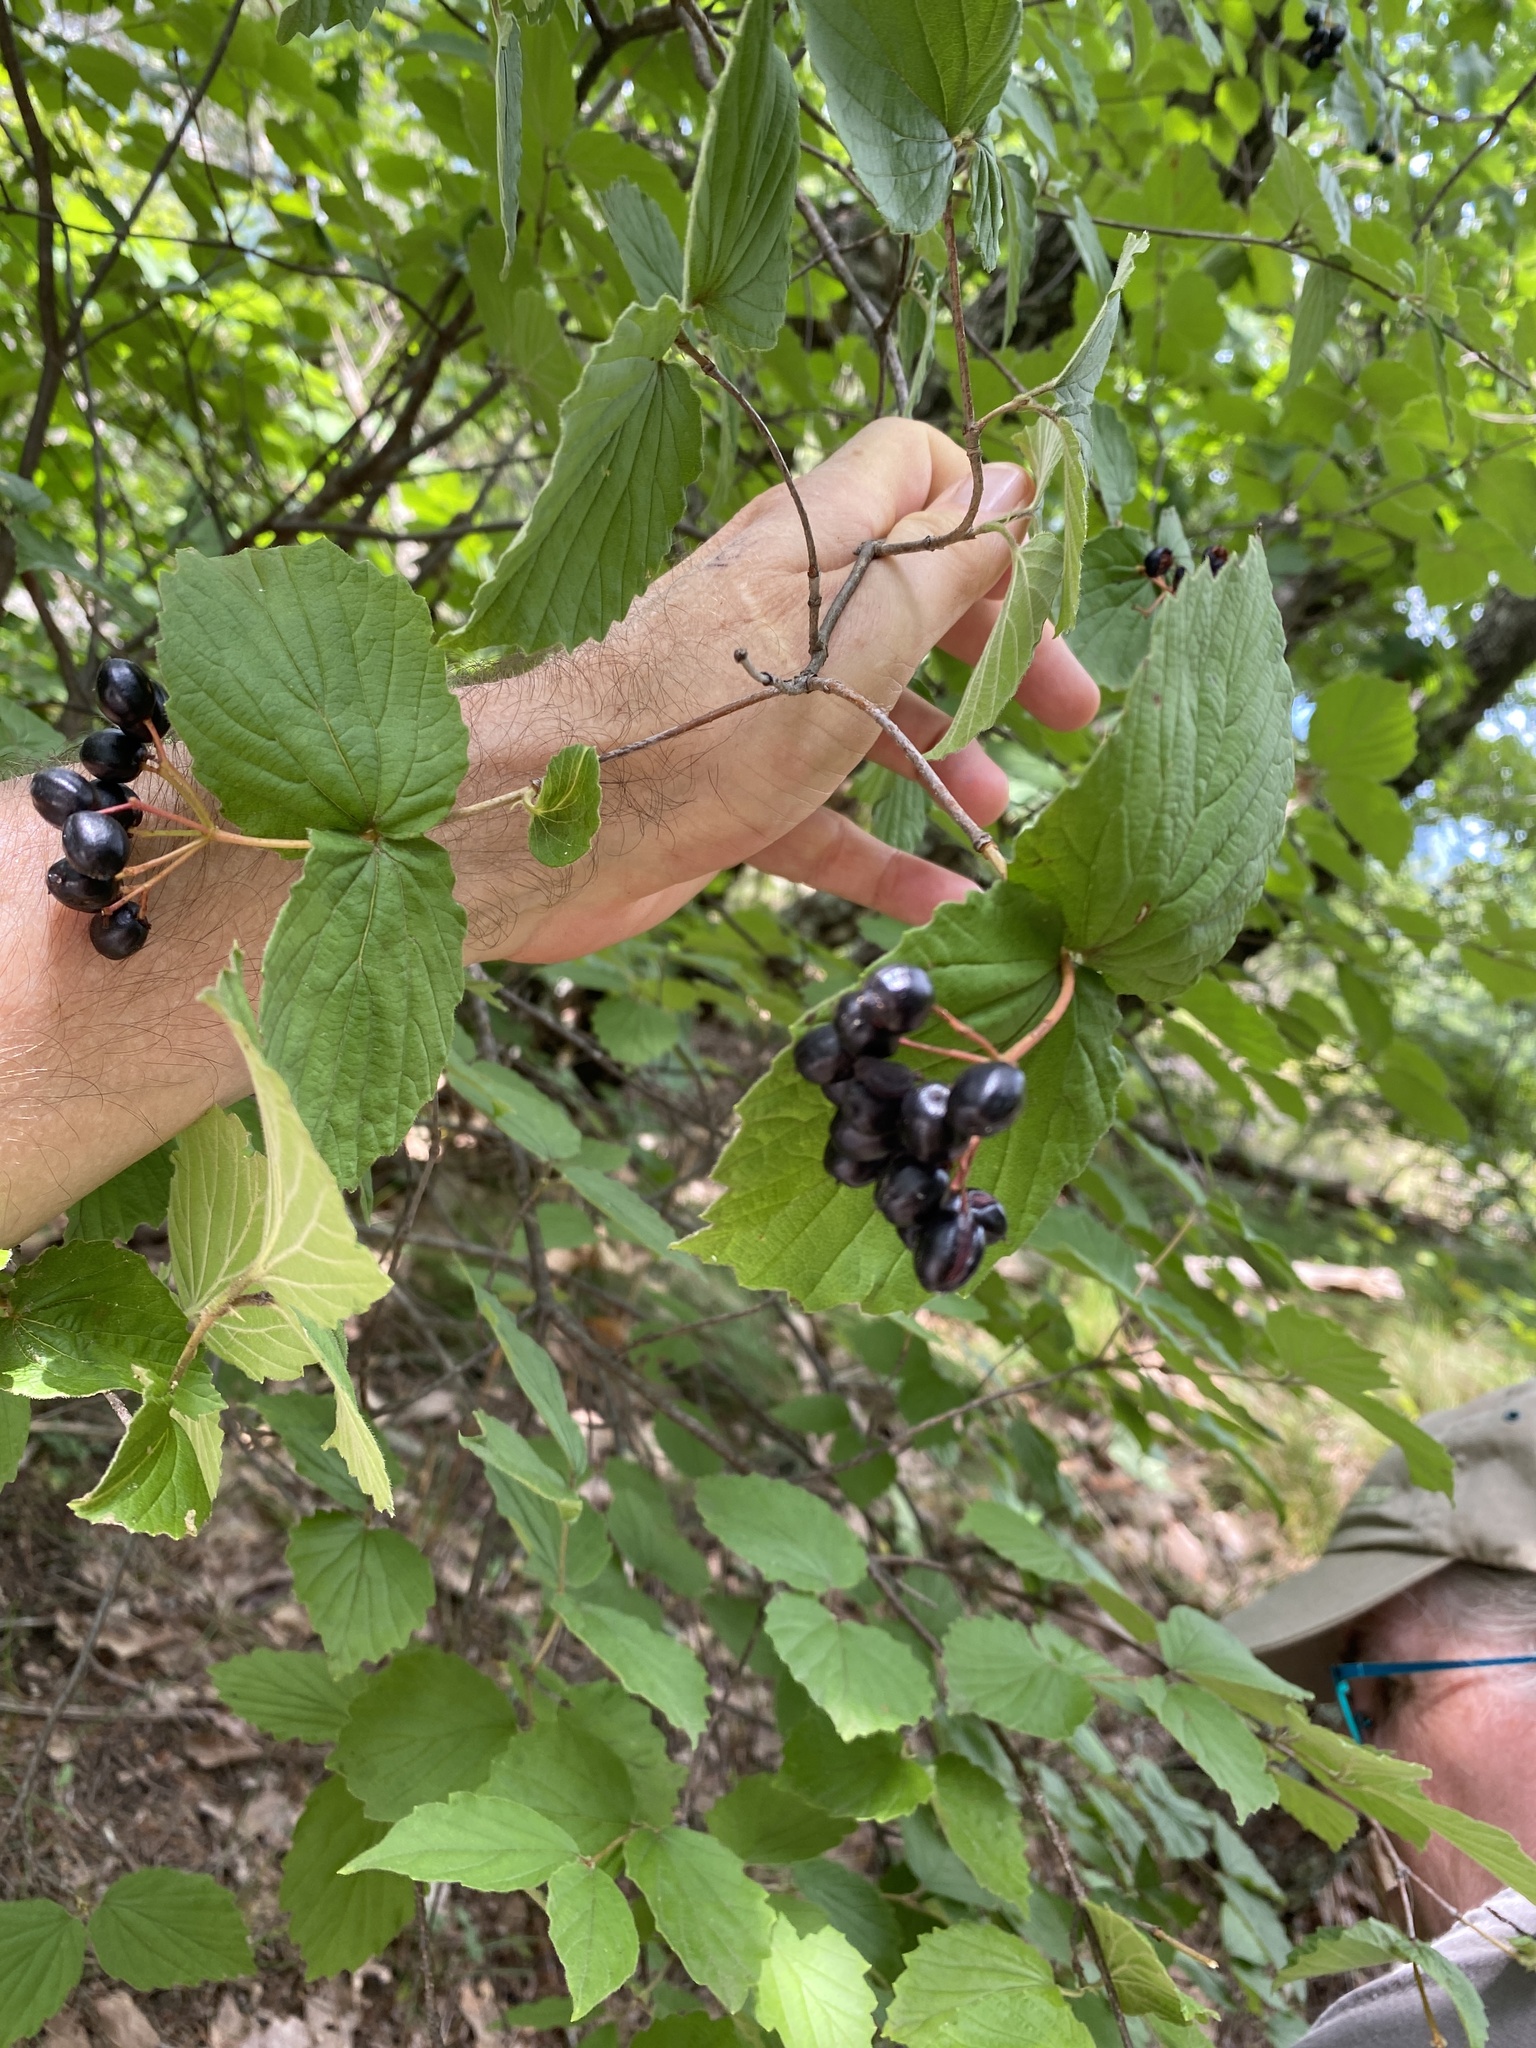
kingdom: Plantae
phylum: Tracheophyta
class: Magnoliopsida
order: Dipsacales
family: Viburnaceae
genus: Viburnum
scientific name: Viburnum rafinesqueanum
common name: Downy arrow-wood
